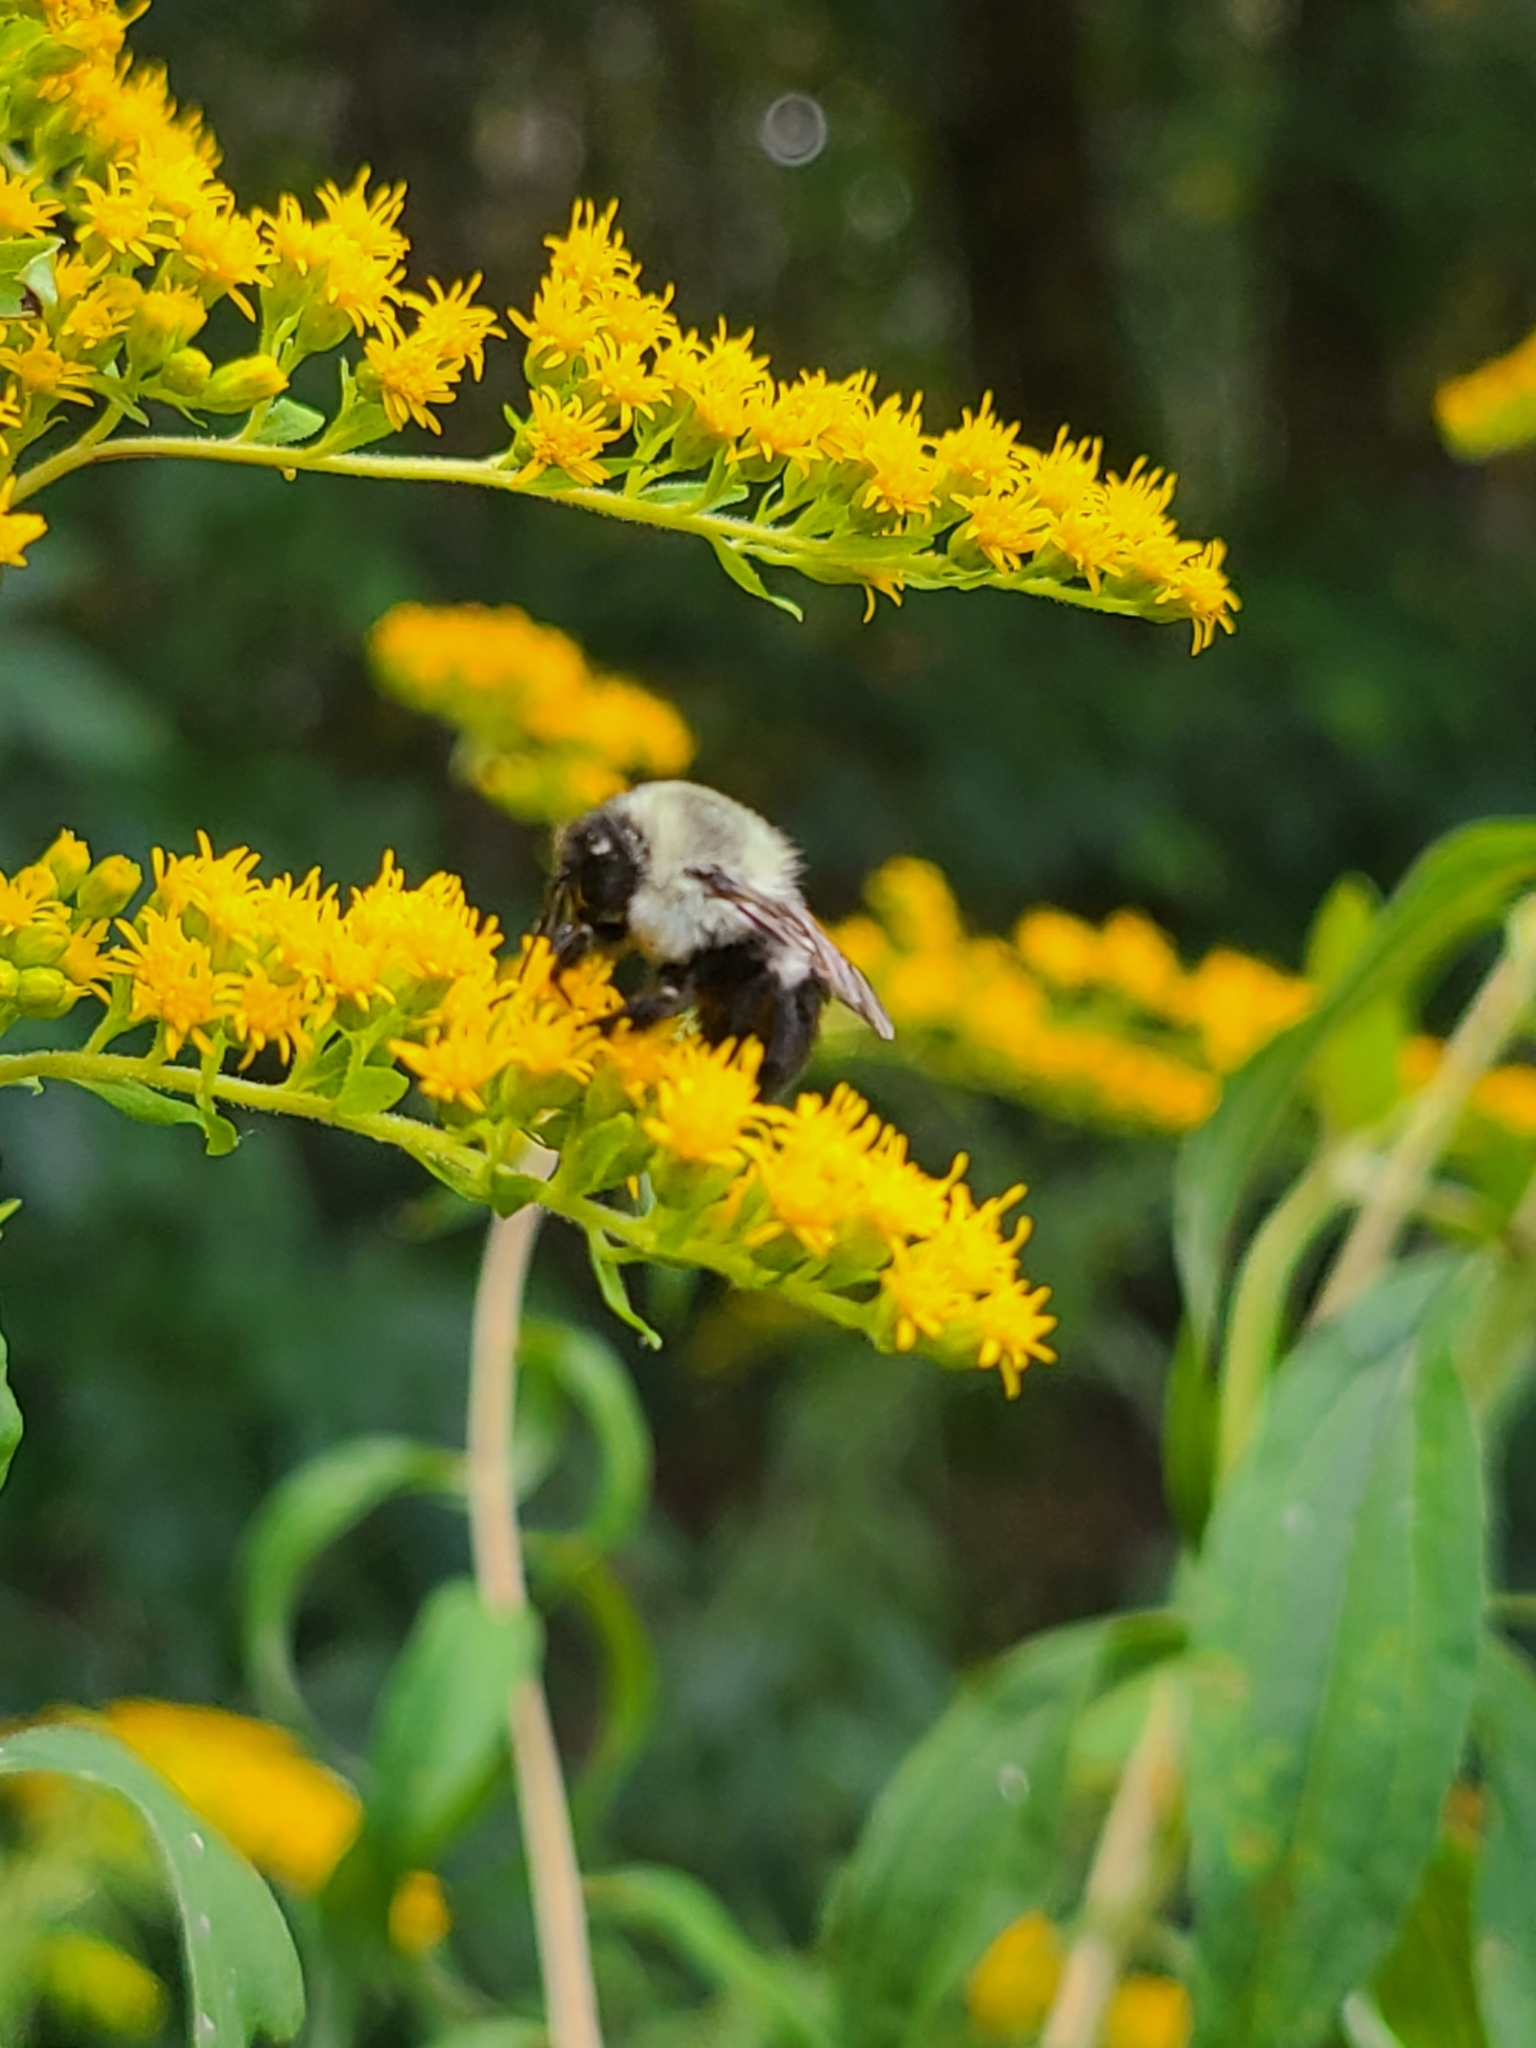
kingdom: Animalia
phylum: Arthropoda
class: Insecta
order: Hymenoptera
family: Apidae
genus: Bombus
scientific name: Bombus impatiens
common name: Common eastern bumble bee
